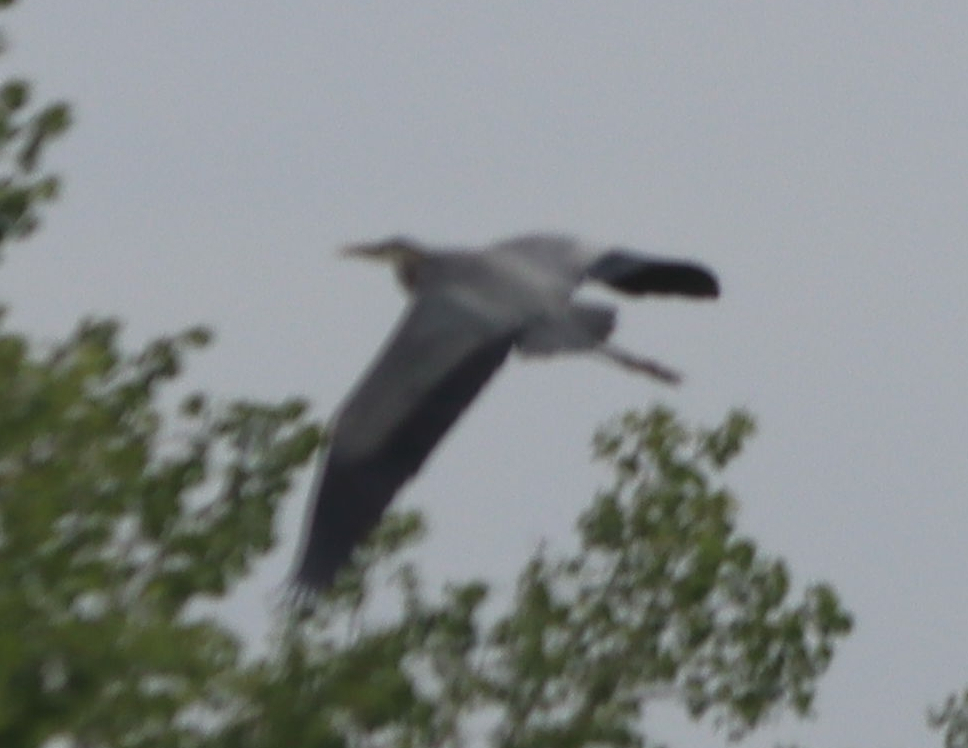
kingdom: Animalia
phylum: Chordata
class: Aves
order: Pelecaniformes
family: Ardeidae
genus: Ardea
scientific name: Ardea herodias
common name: Great blue heron
